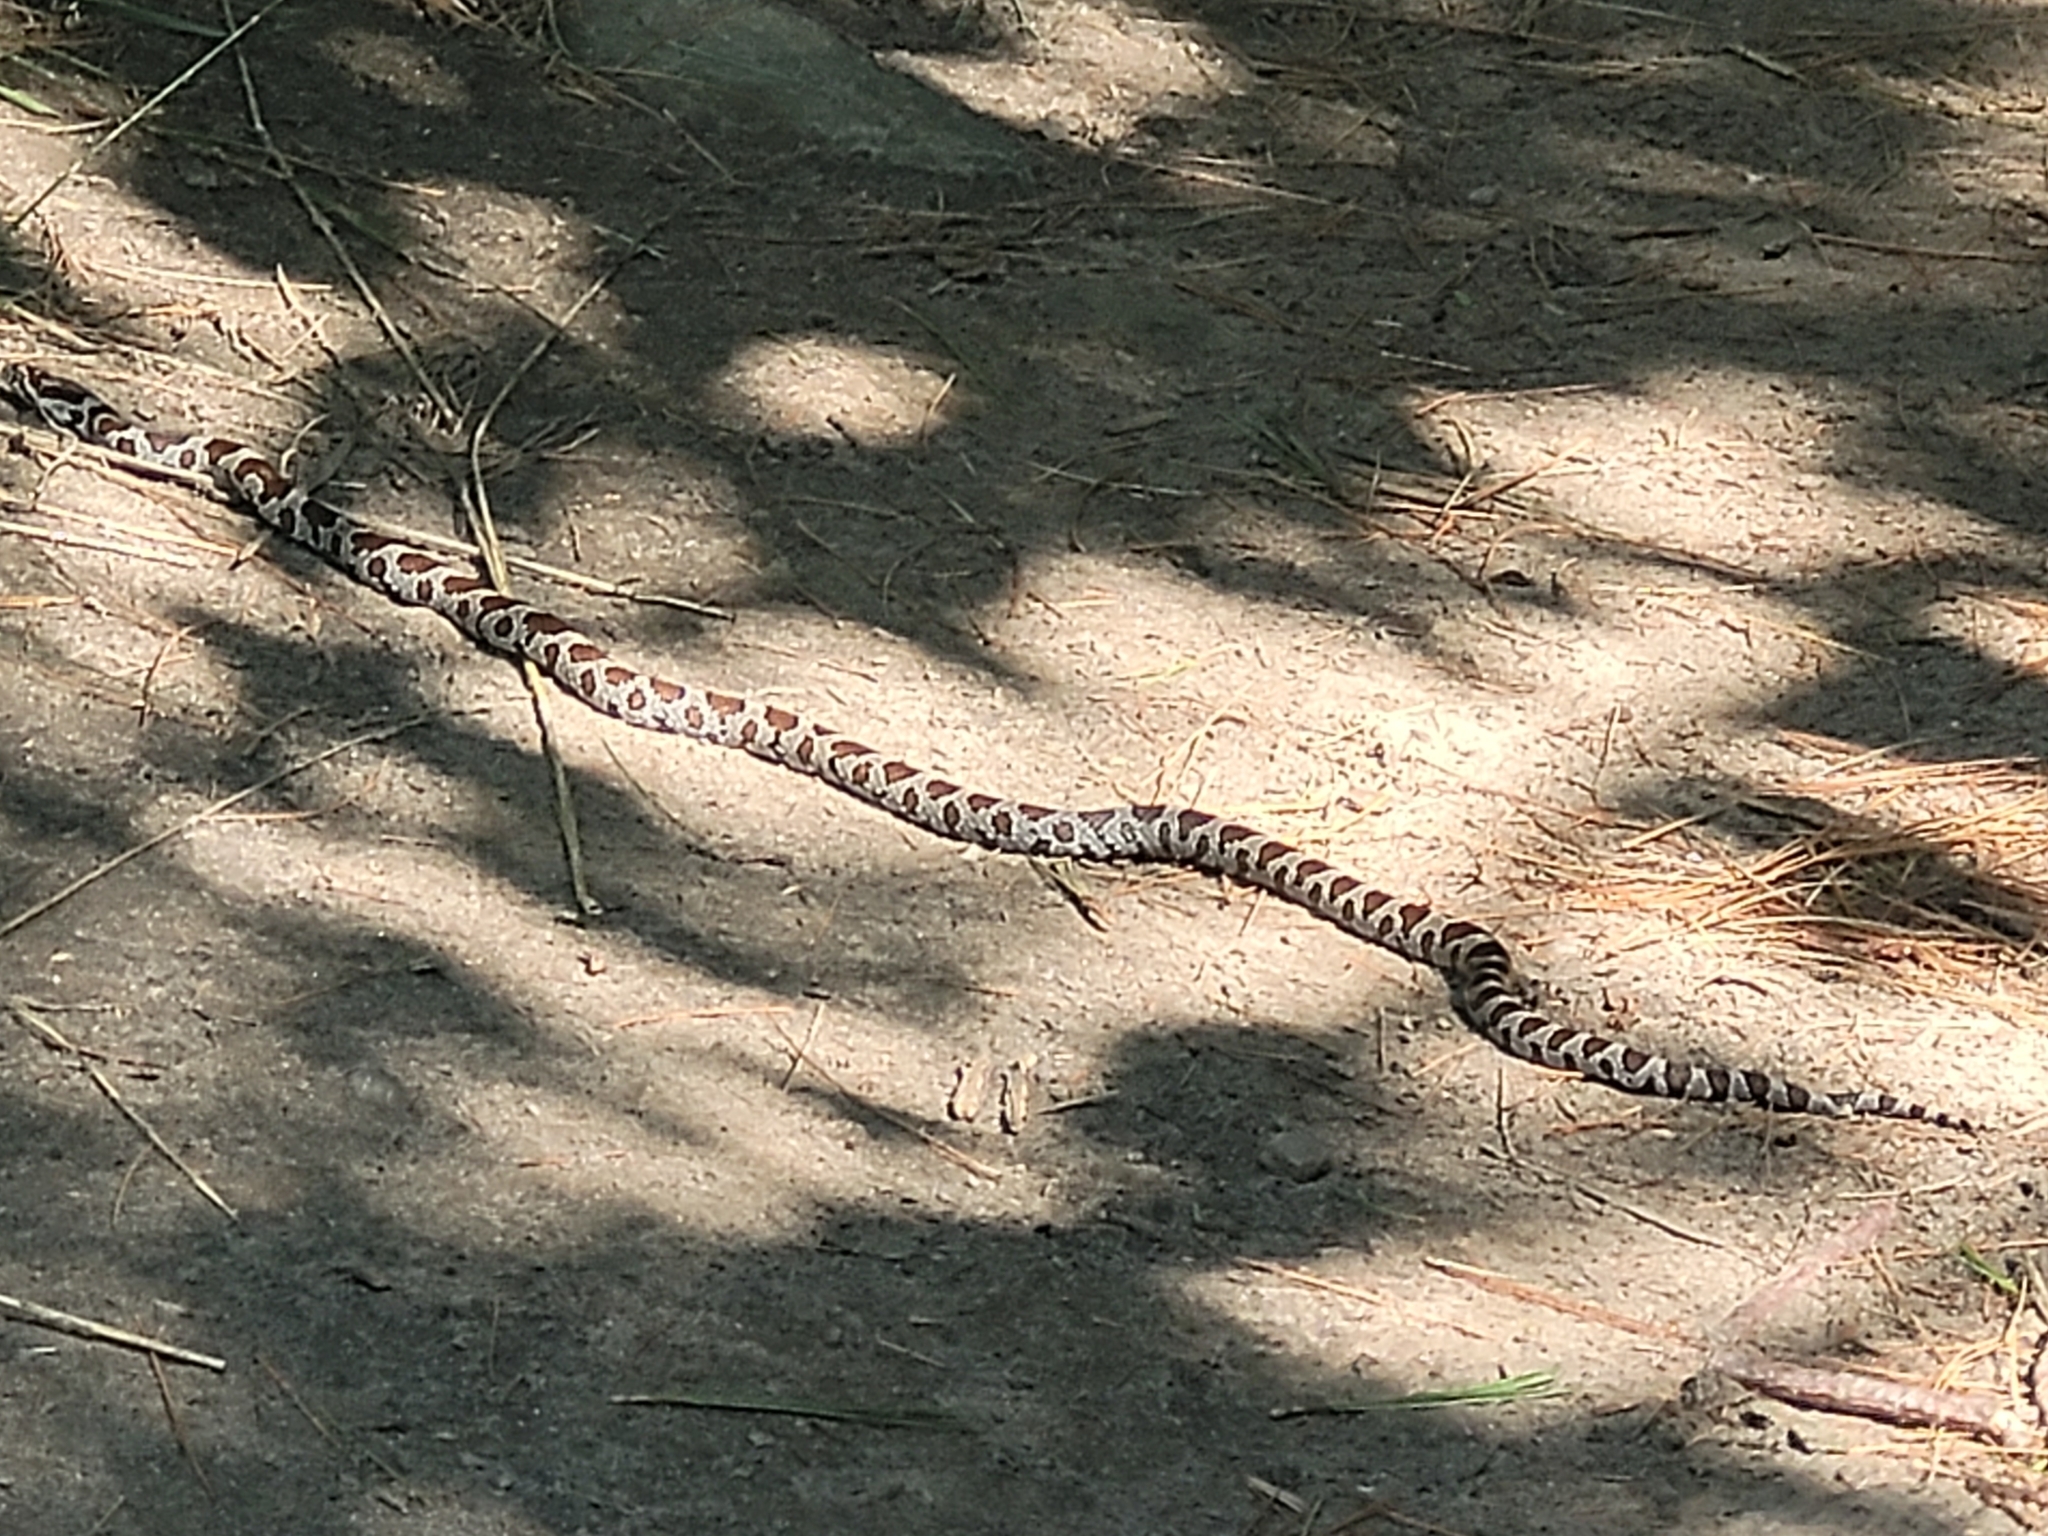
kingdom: Animalia
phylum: Chordata
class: Squamata
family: Colubridae
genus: Lampropeltis
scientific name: Lampropeltis triangulum
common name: Eastern milksnake
